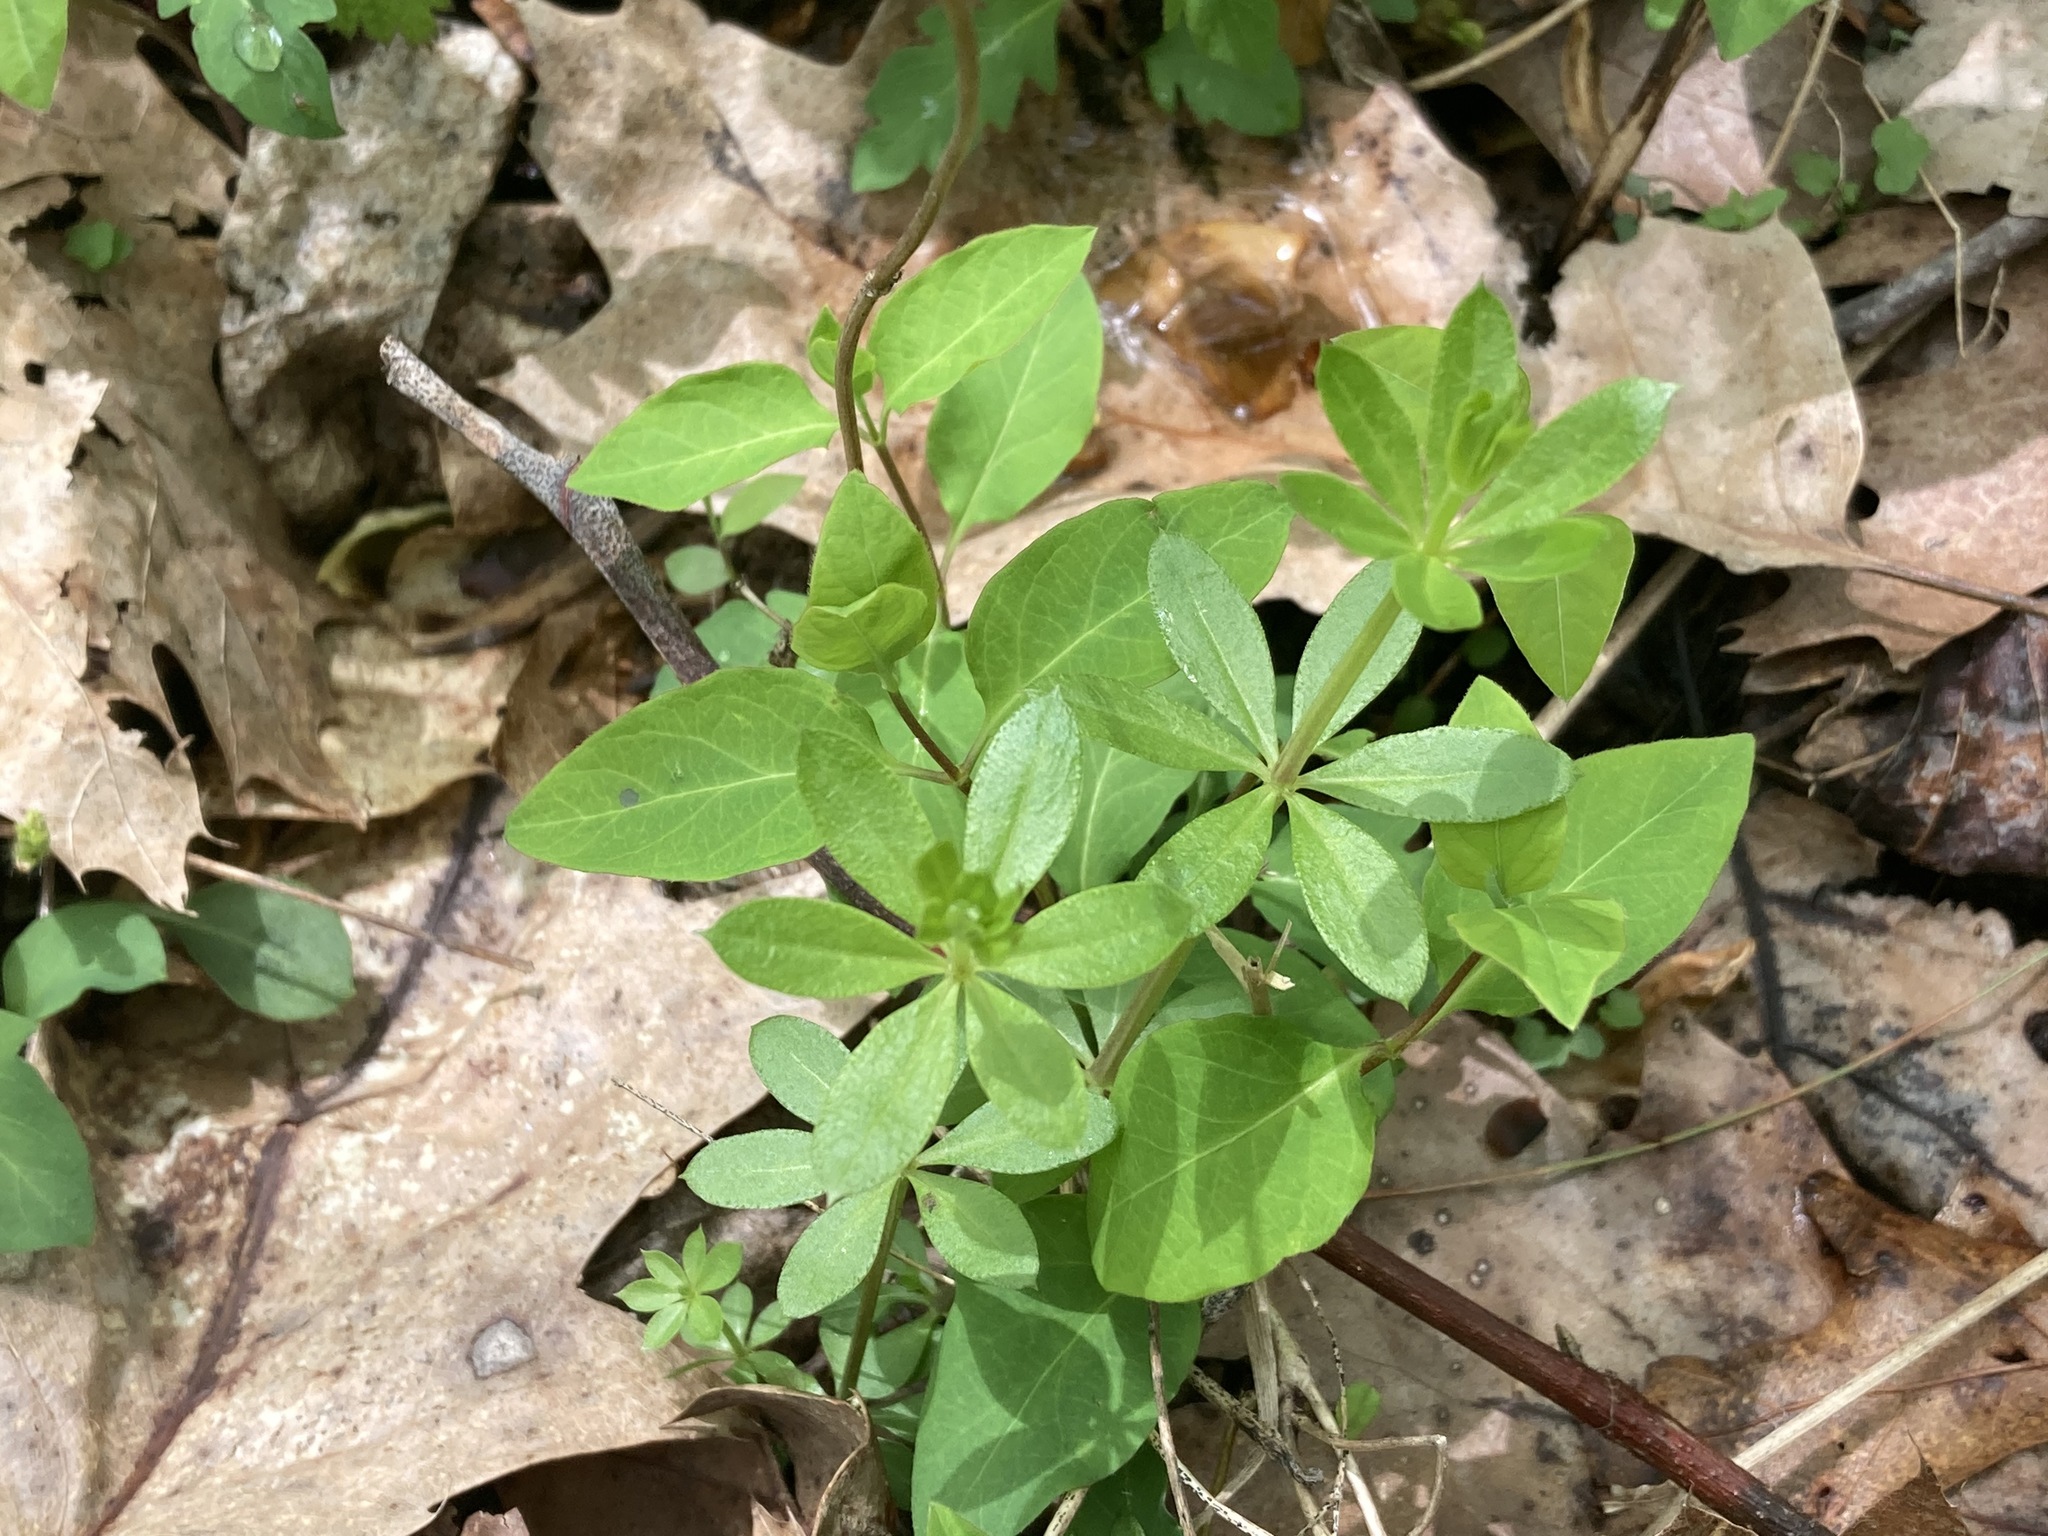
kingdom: Plantae
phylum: Tracheophyta
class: Magnoliopsida
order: Gentianales
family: Rubiaceae
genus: Galium
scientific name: Galium triflorum
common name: Fragrant bedstraw
